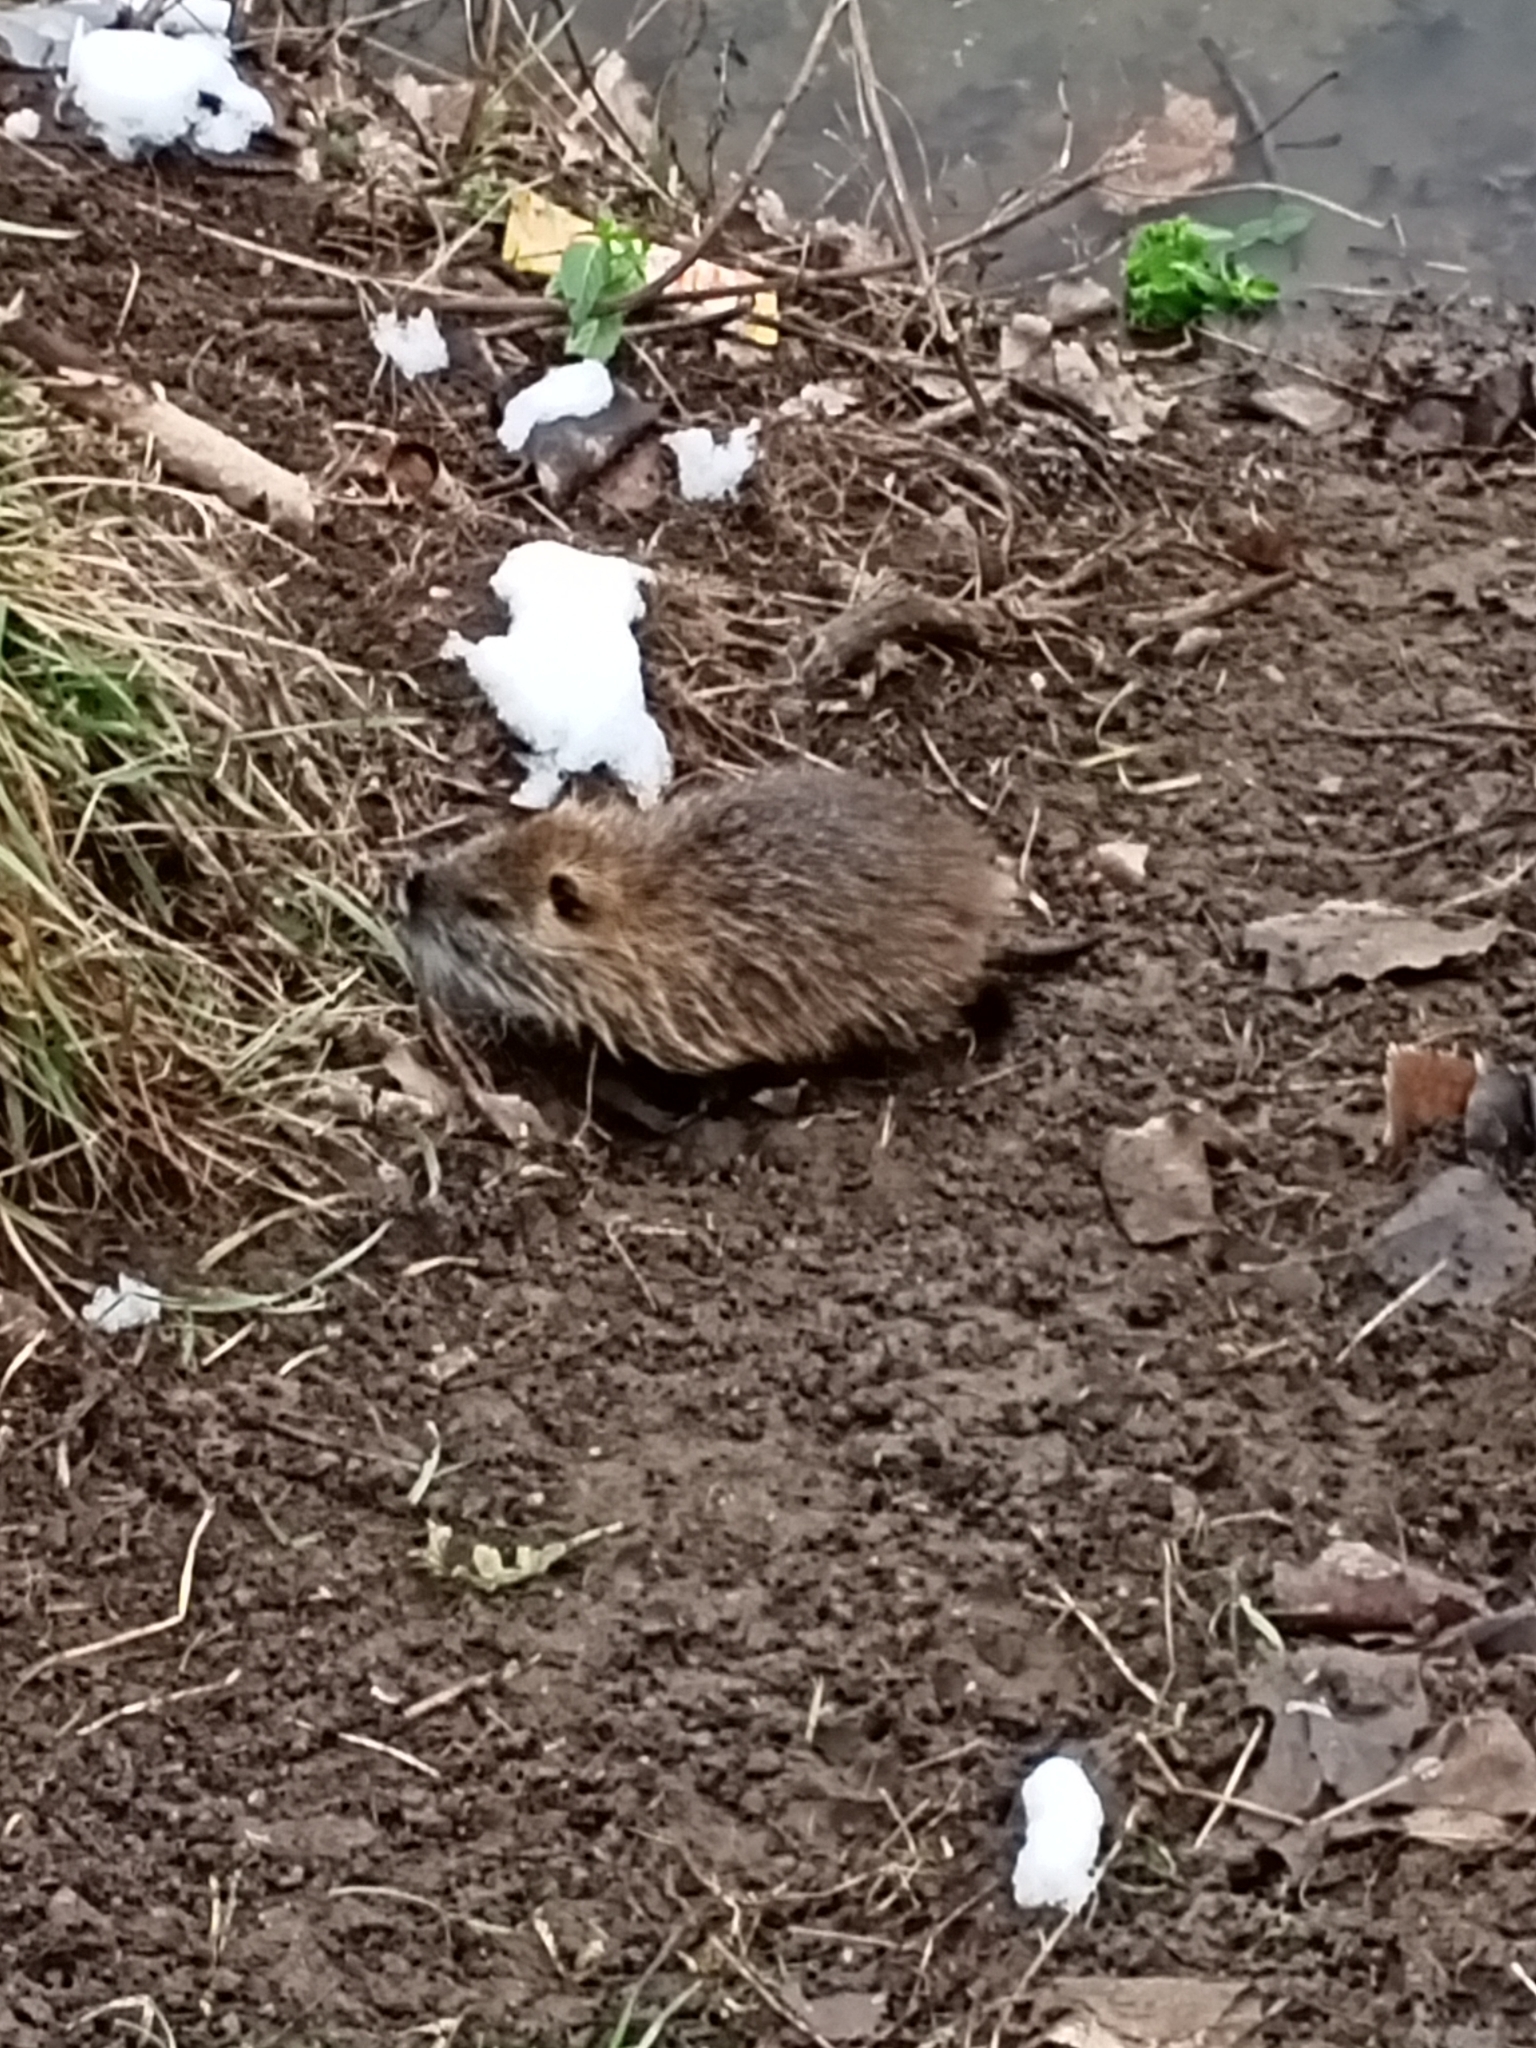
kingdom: Animalia
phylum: Chordata
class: Mammalia
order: Rodentia
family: Myocastoridae
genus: Myocastor
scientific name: Myocastor coypus
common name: Coypu
